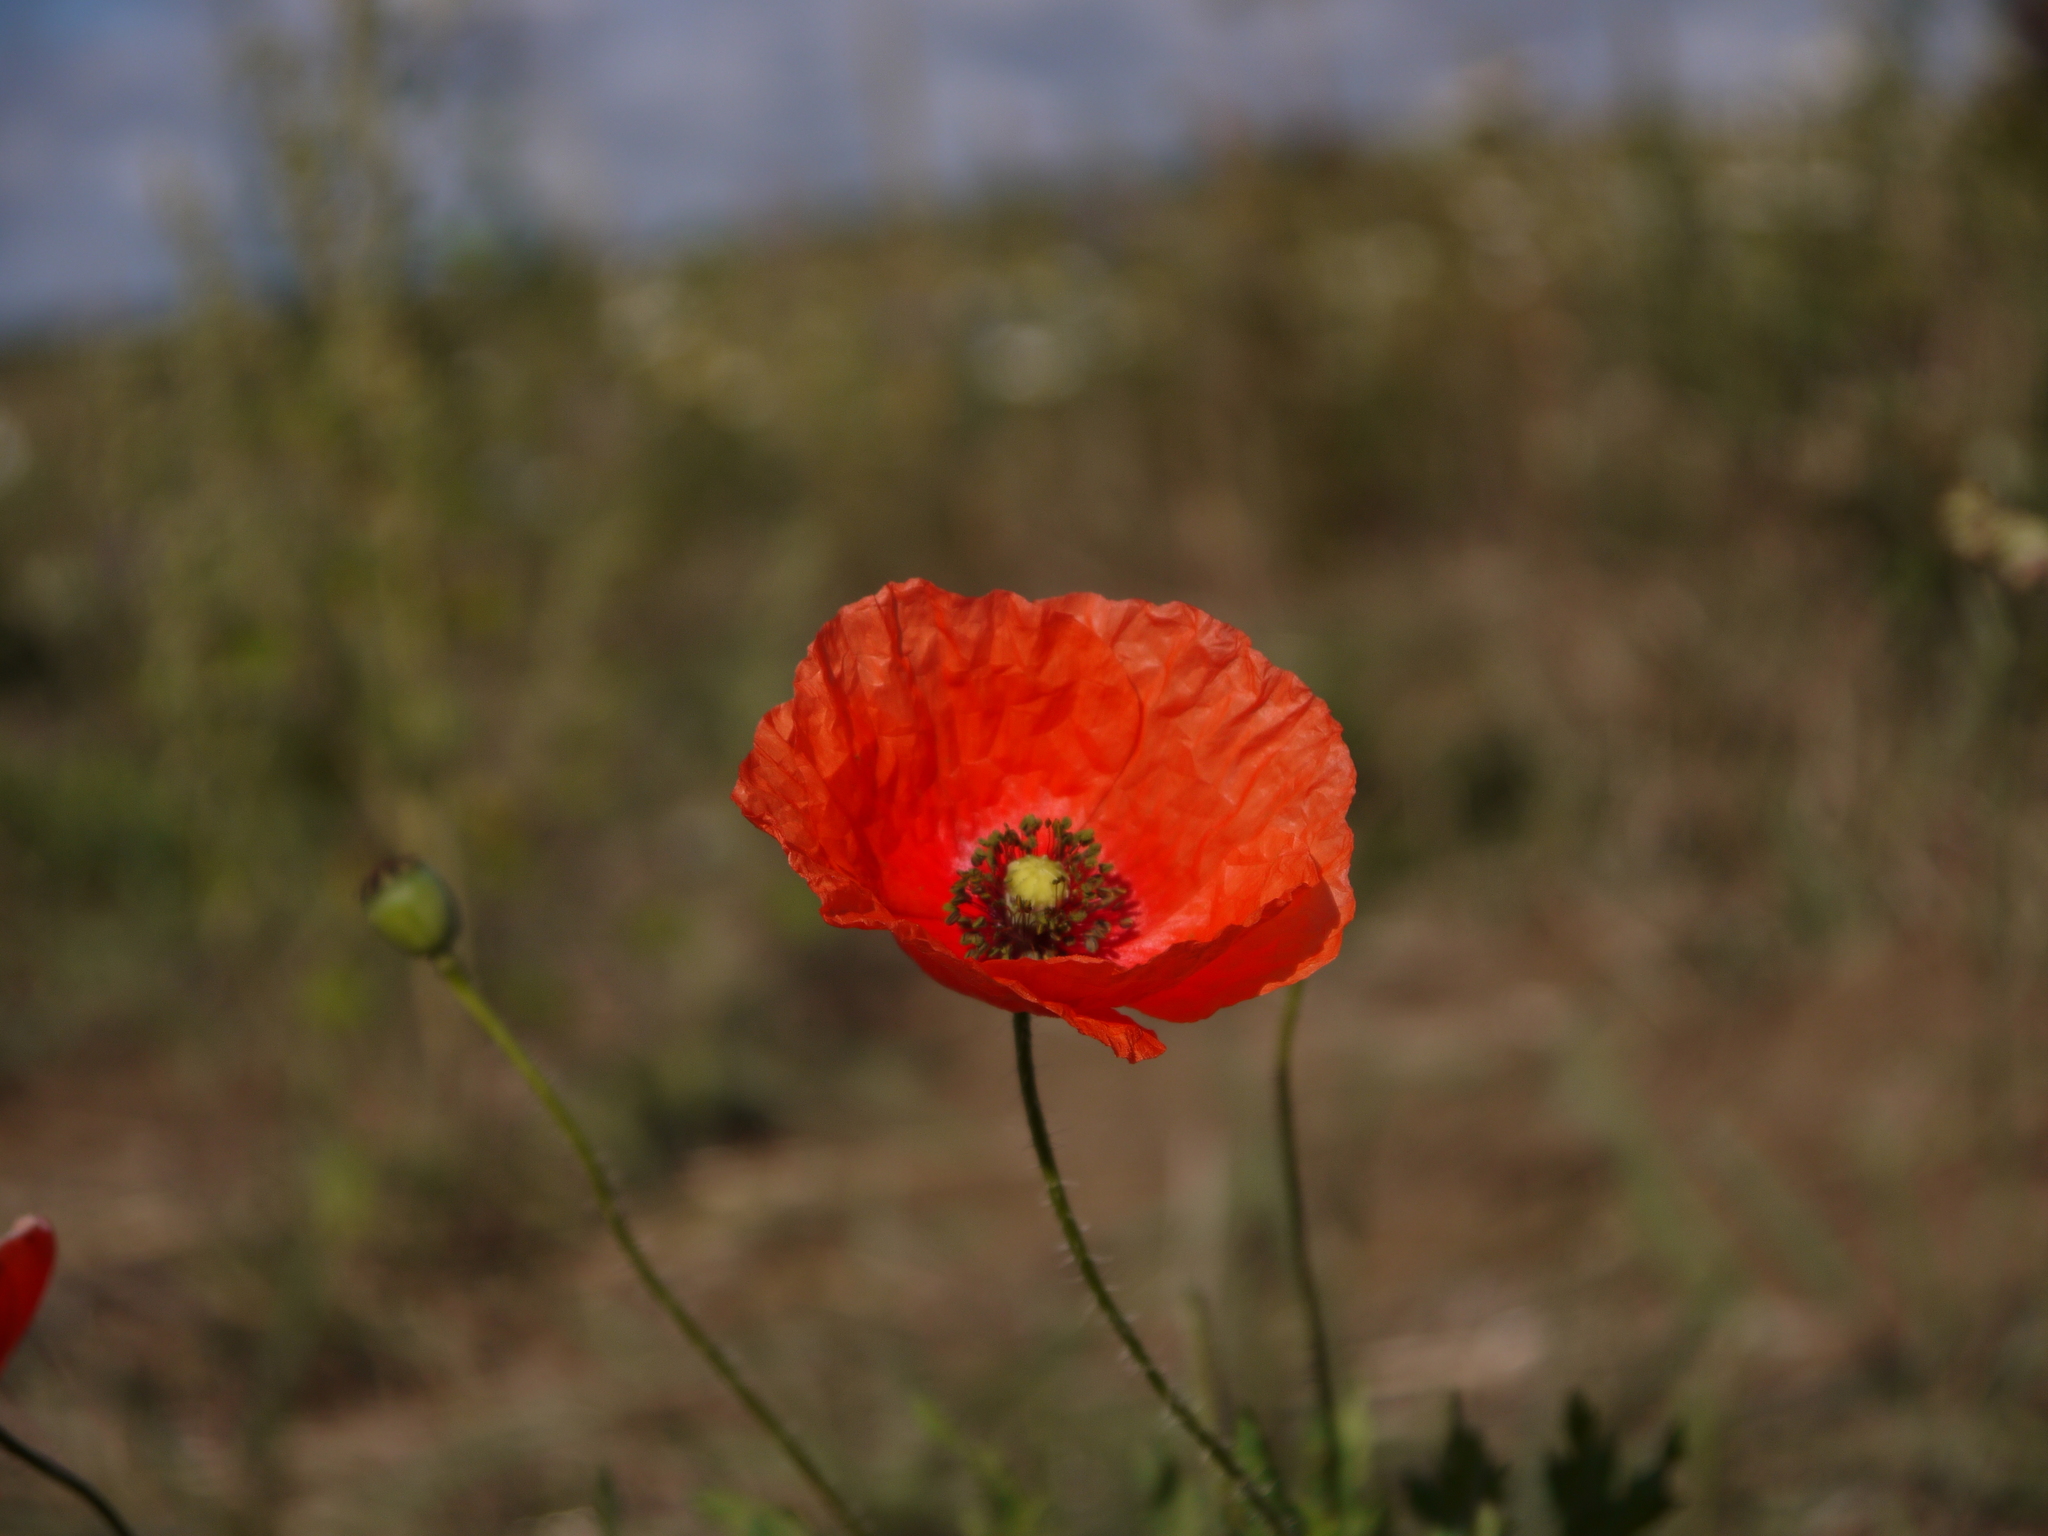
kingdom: Plantae
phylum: Tracheophyta
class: Magnoliopsida
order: Ranunculales
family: Papaveraceae
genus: Papaver
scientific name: Papaver rhoeas
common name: Corn poppy
